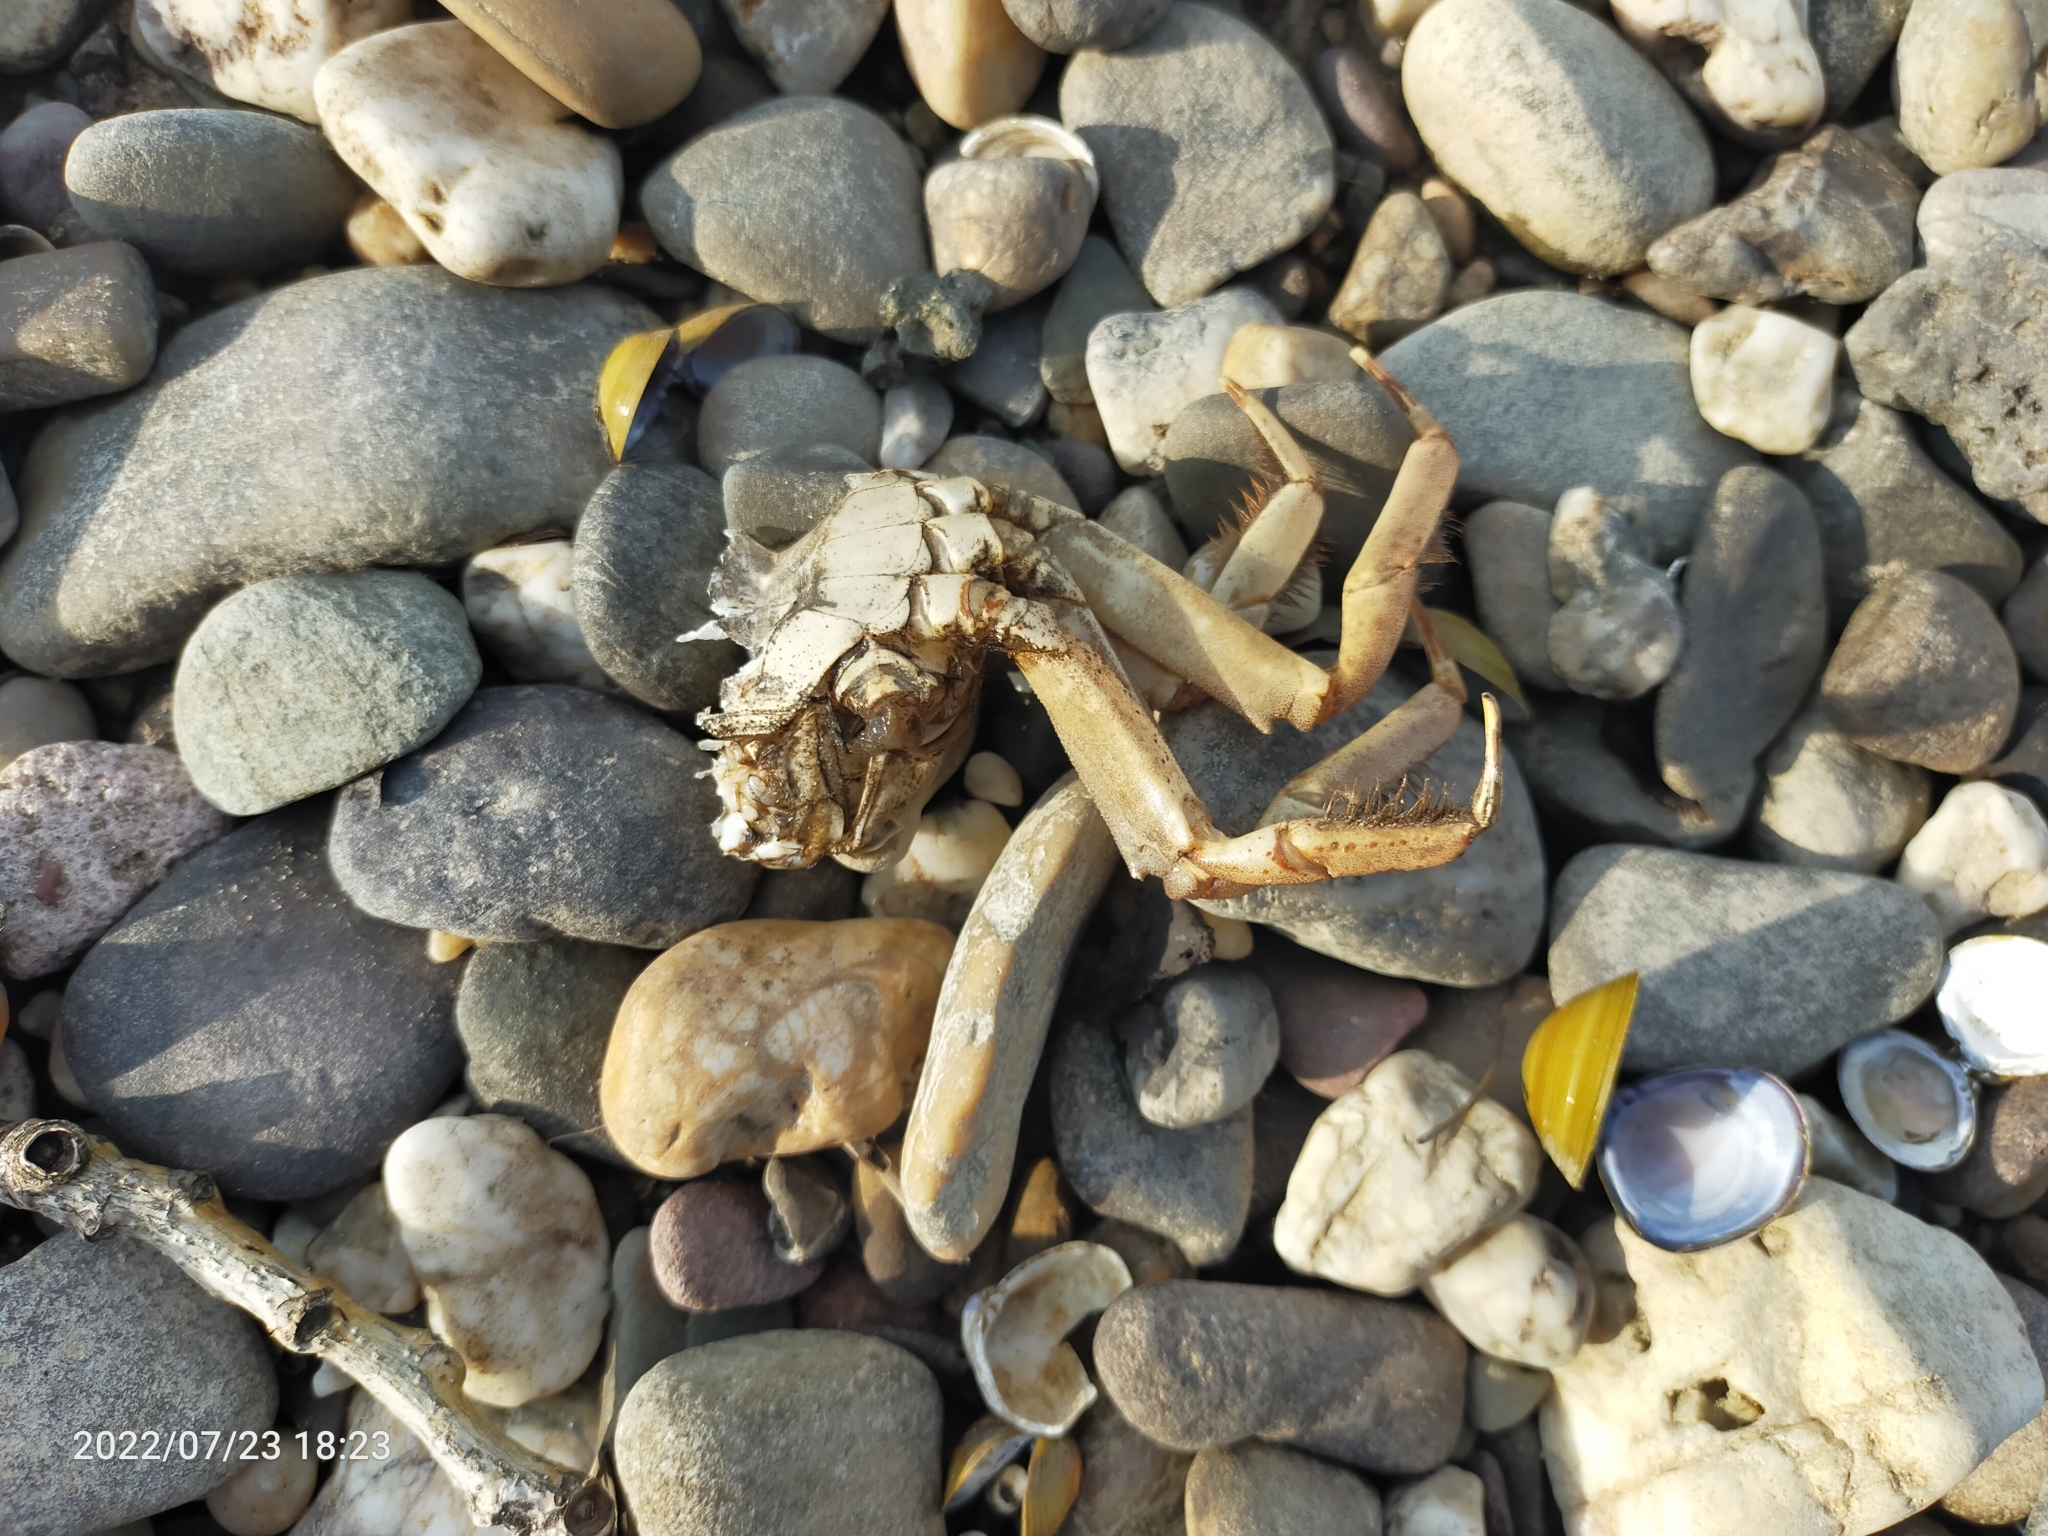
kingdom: Animalia
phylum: Arthropoda
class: Malacostraca
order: Decapoda
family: Varunidae
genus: Eriocheir
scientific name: Eriocheir sinensis
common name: Chinese mitten crab
